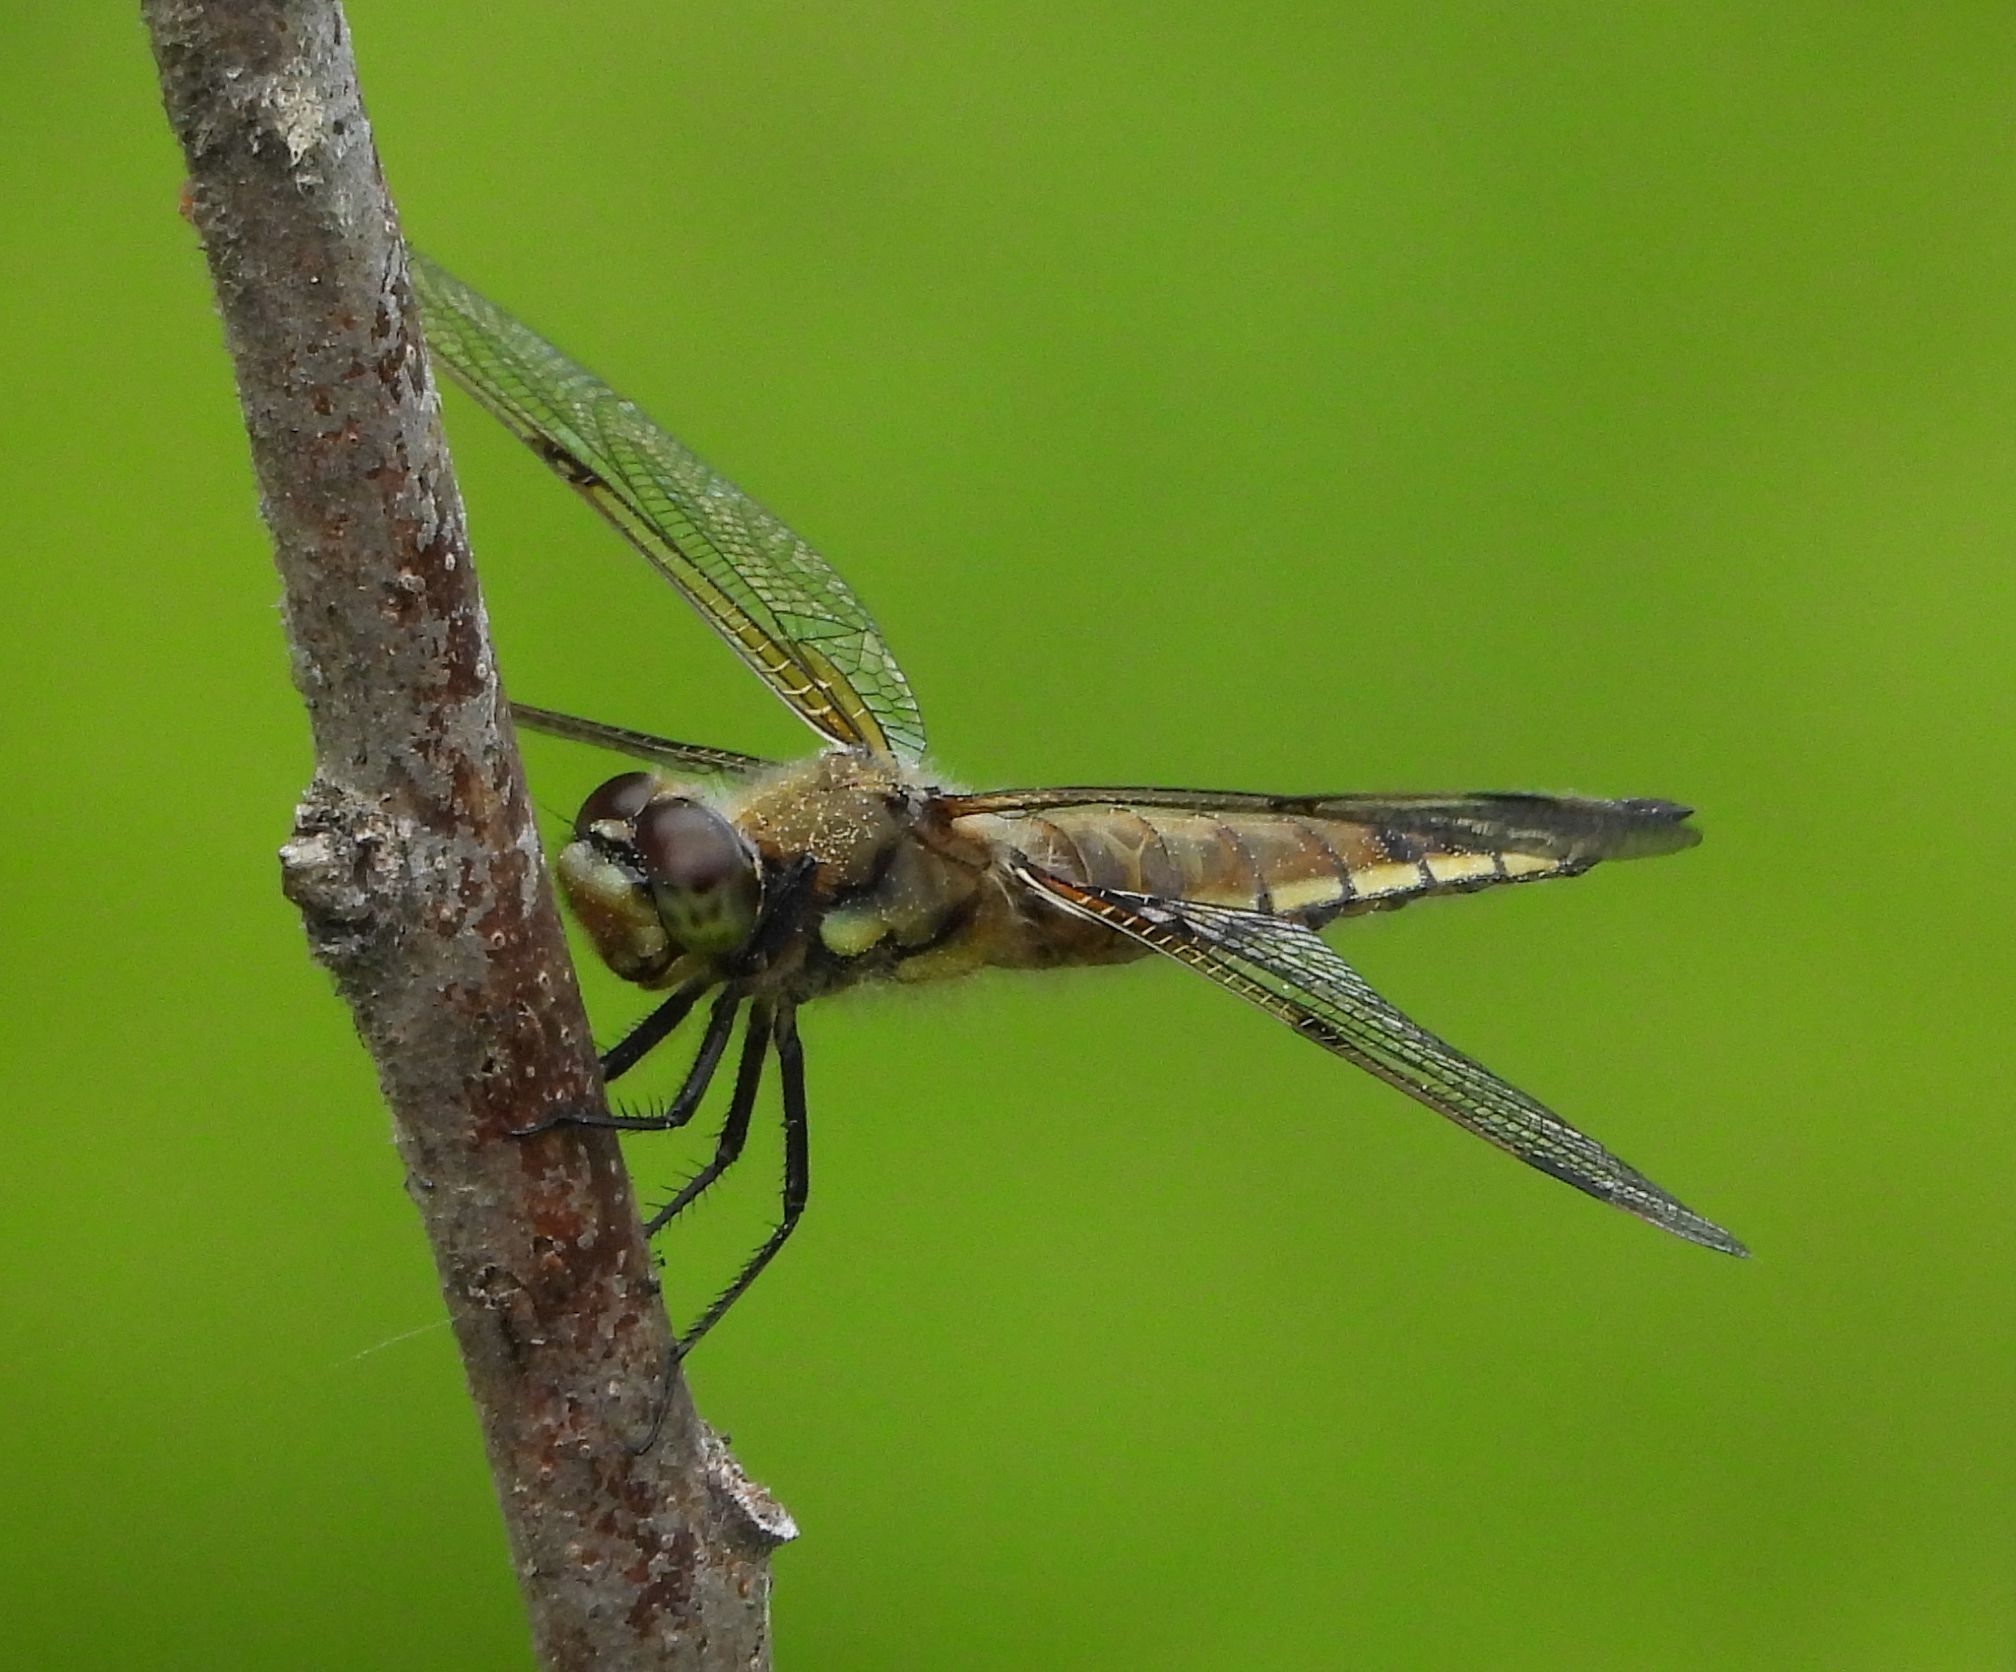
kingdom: Animalia
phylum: Arthropoda
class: Insecta
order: Odonata
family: Libellulidae
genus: Libellula
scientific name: Libellula quadrimaculata
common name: Four-spotted chaser
